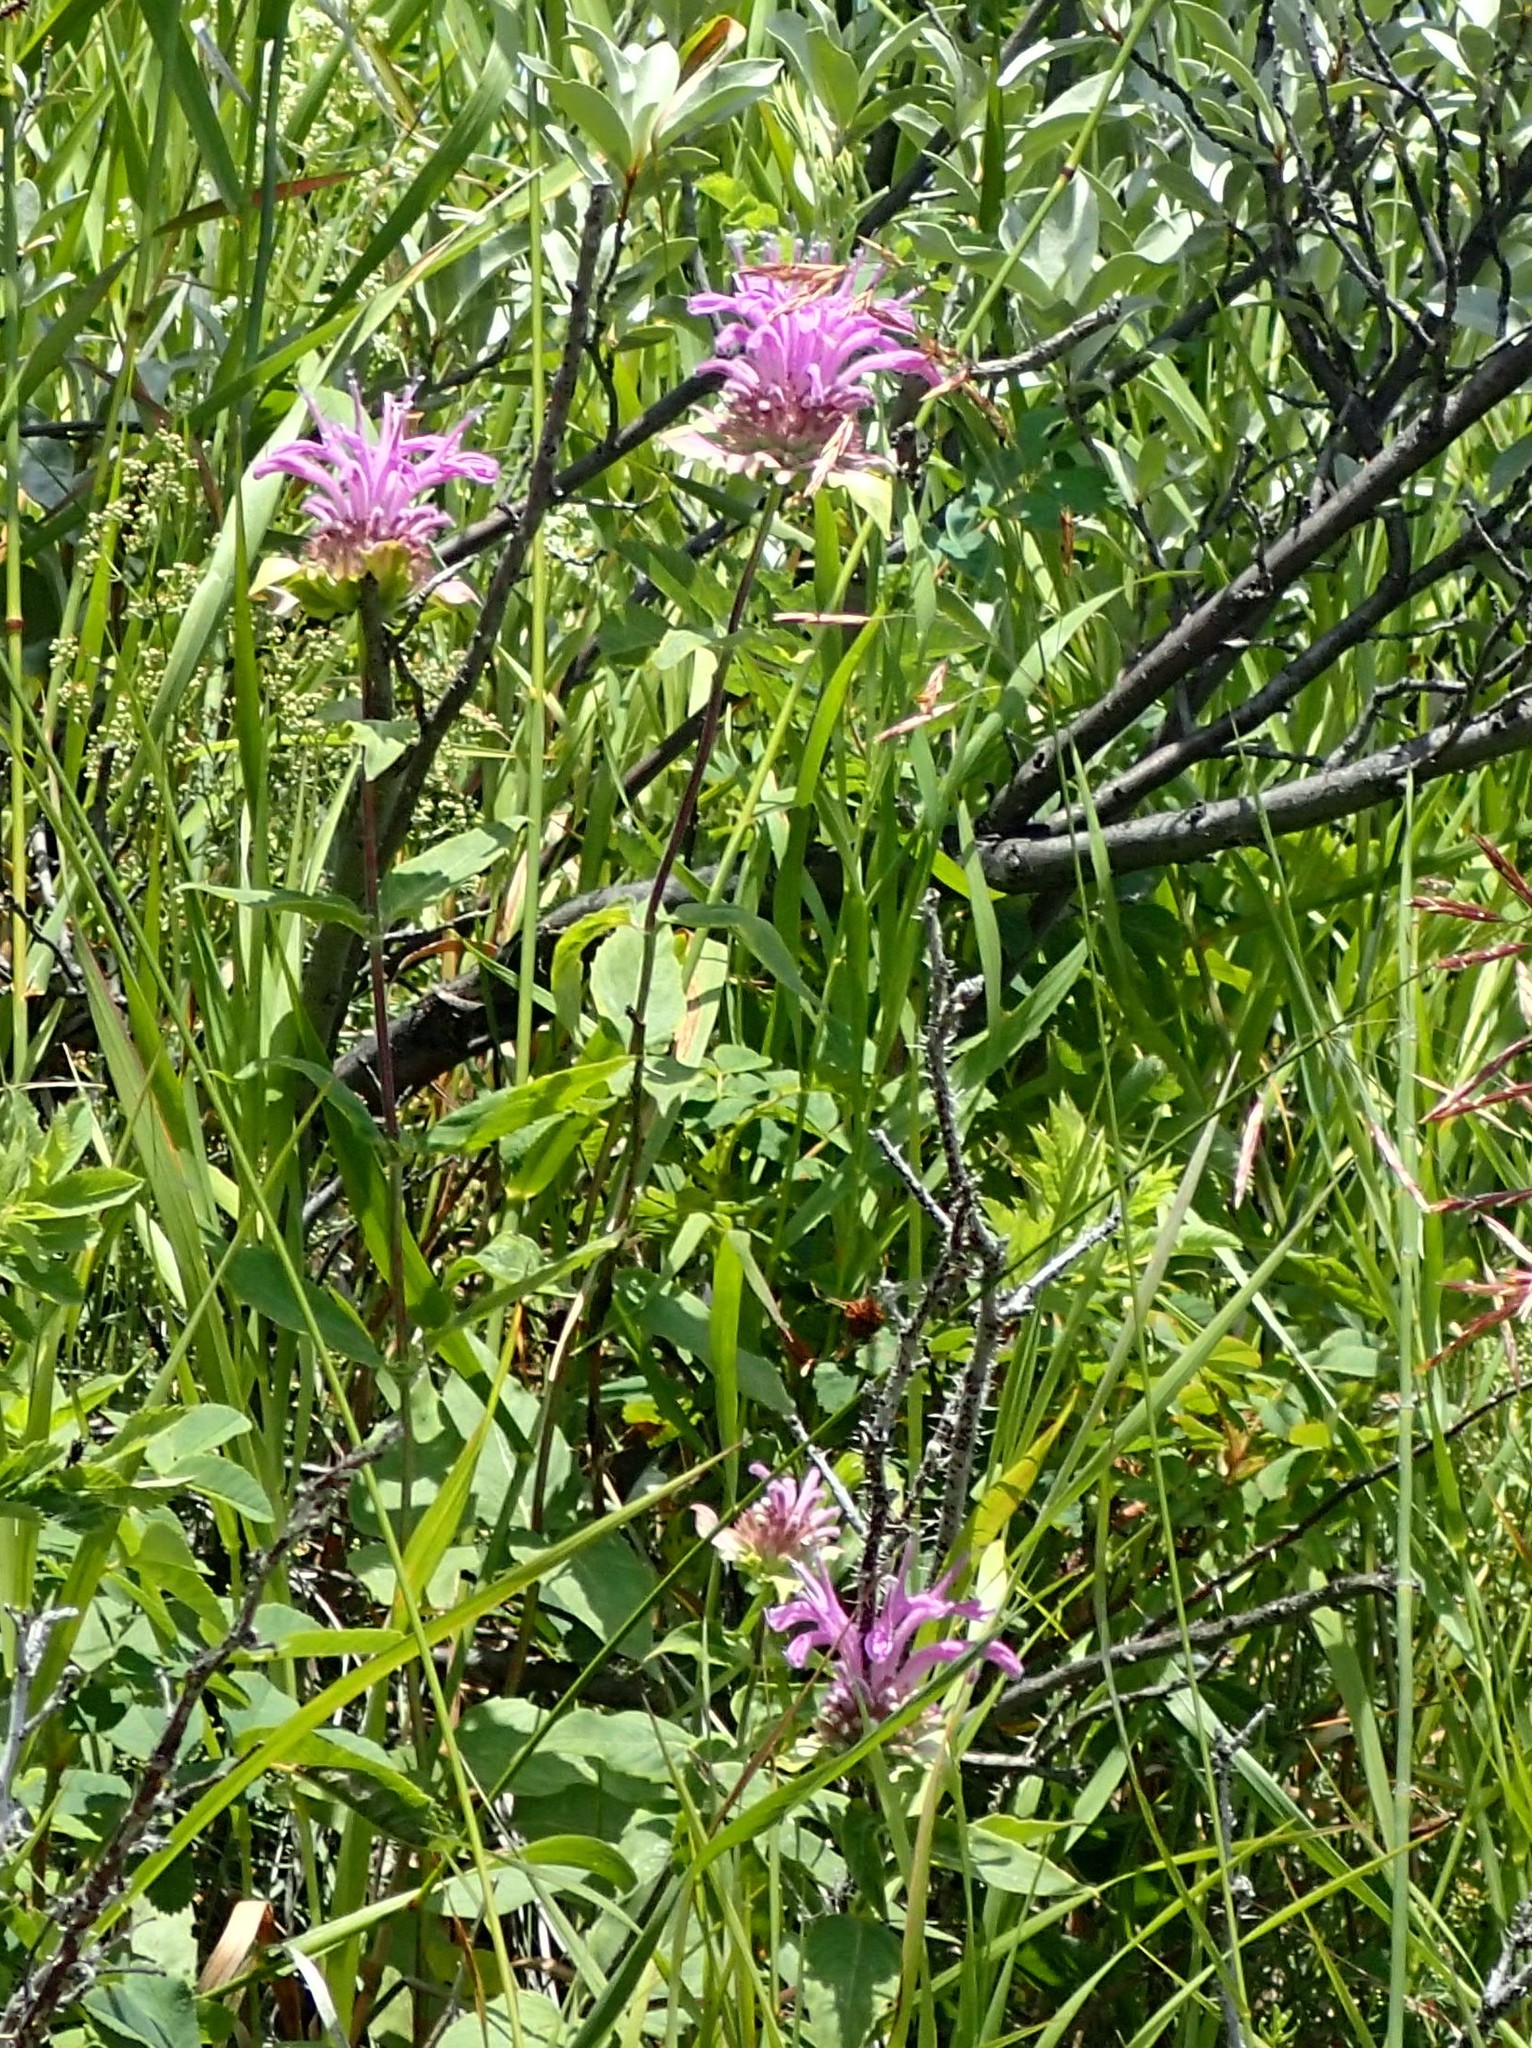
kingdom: Plantae
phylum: Tracheophyta
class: Magnoliopsida
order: Lamiales
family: Lamiaceae
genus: Monarda
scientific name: Monarda fistulosa
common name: Purple beebalm
